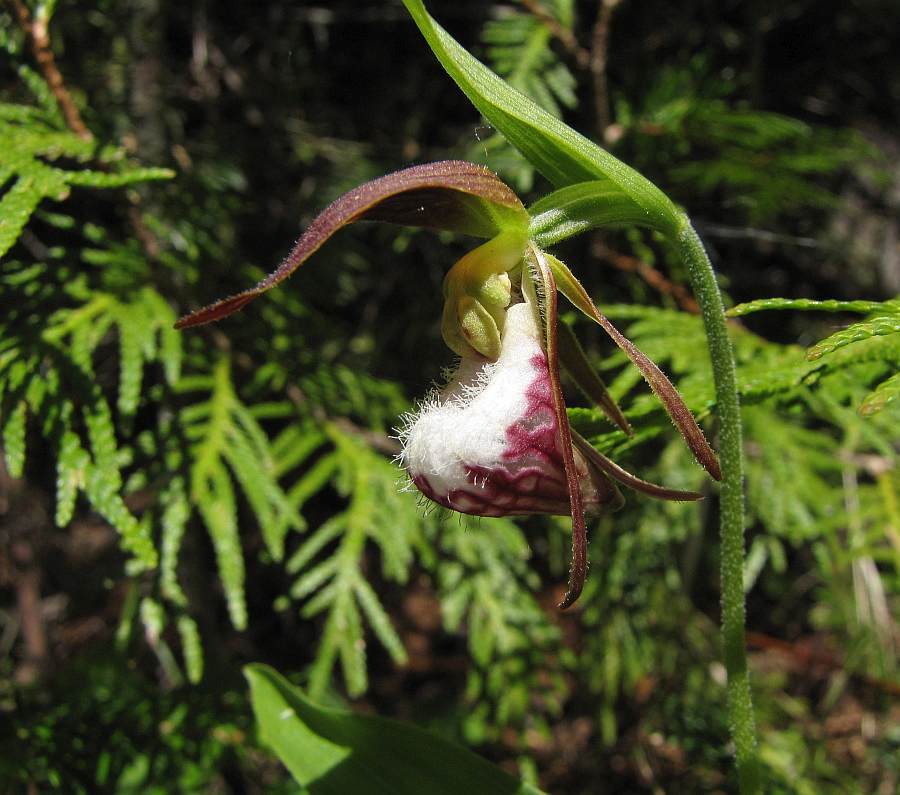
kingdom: Plantae
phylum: Tracheophyta
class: Liliopsida
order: Asparagales
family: Orchidaceae
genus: Cypripedium
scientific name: Cypripedium arietinum
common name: Ram's-head
